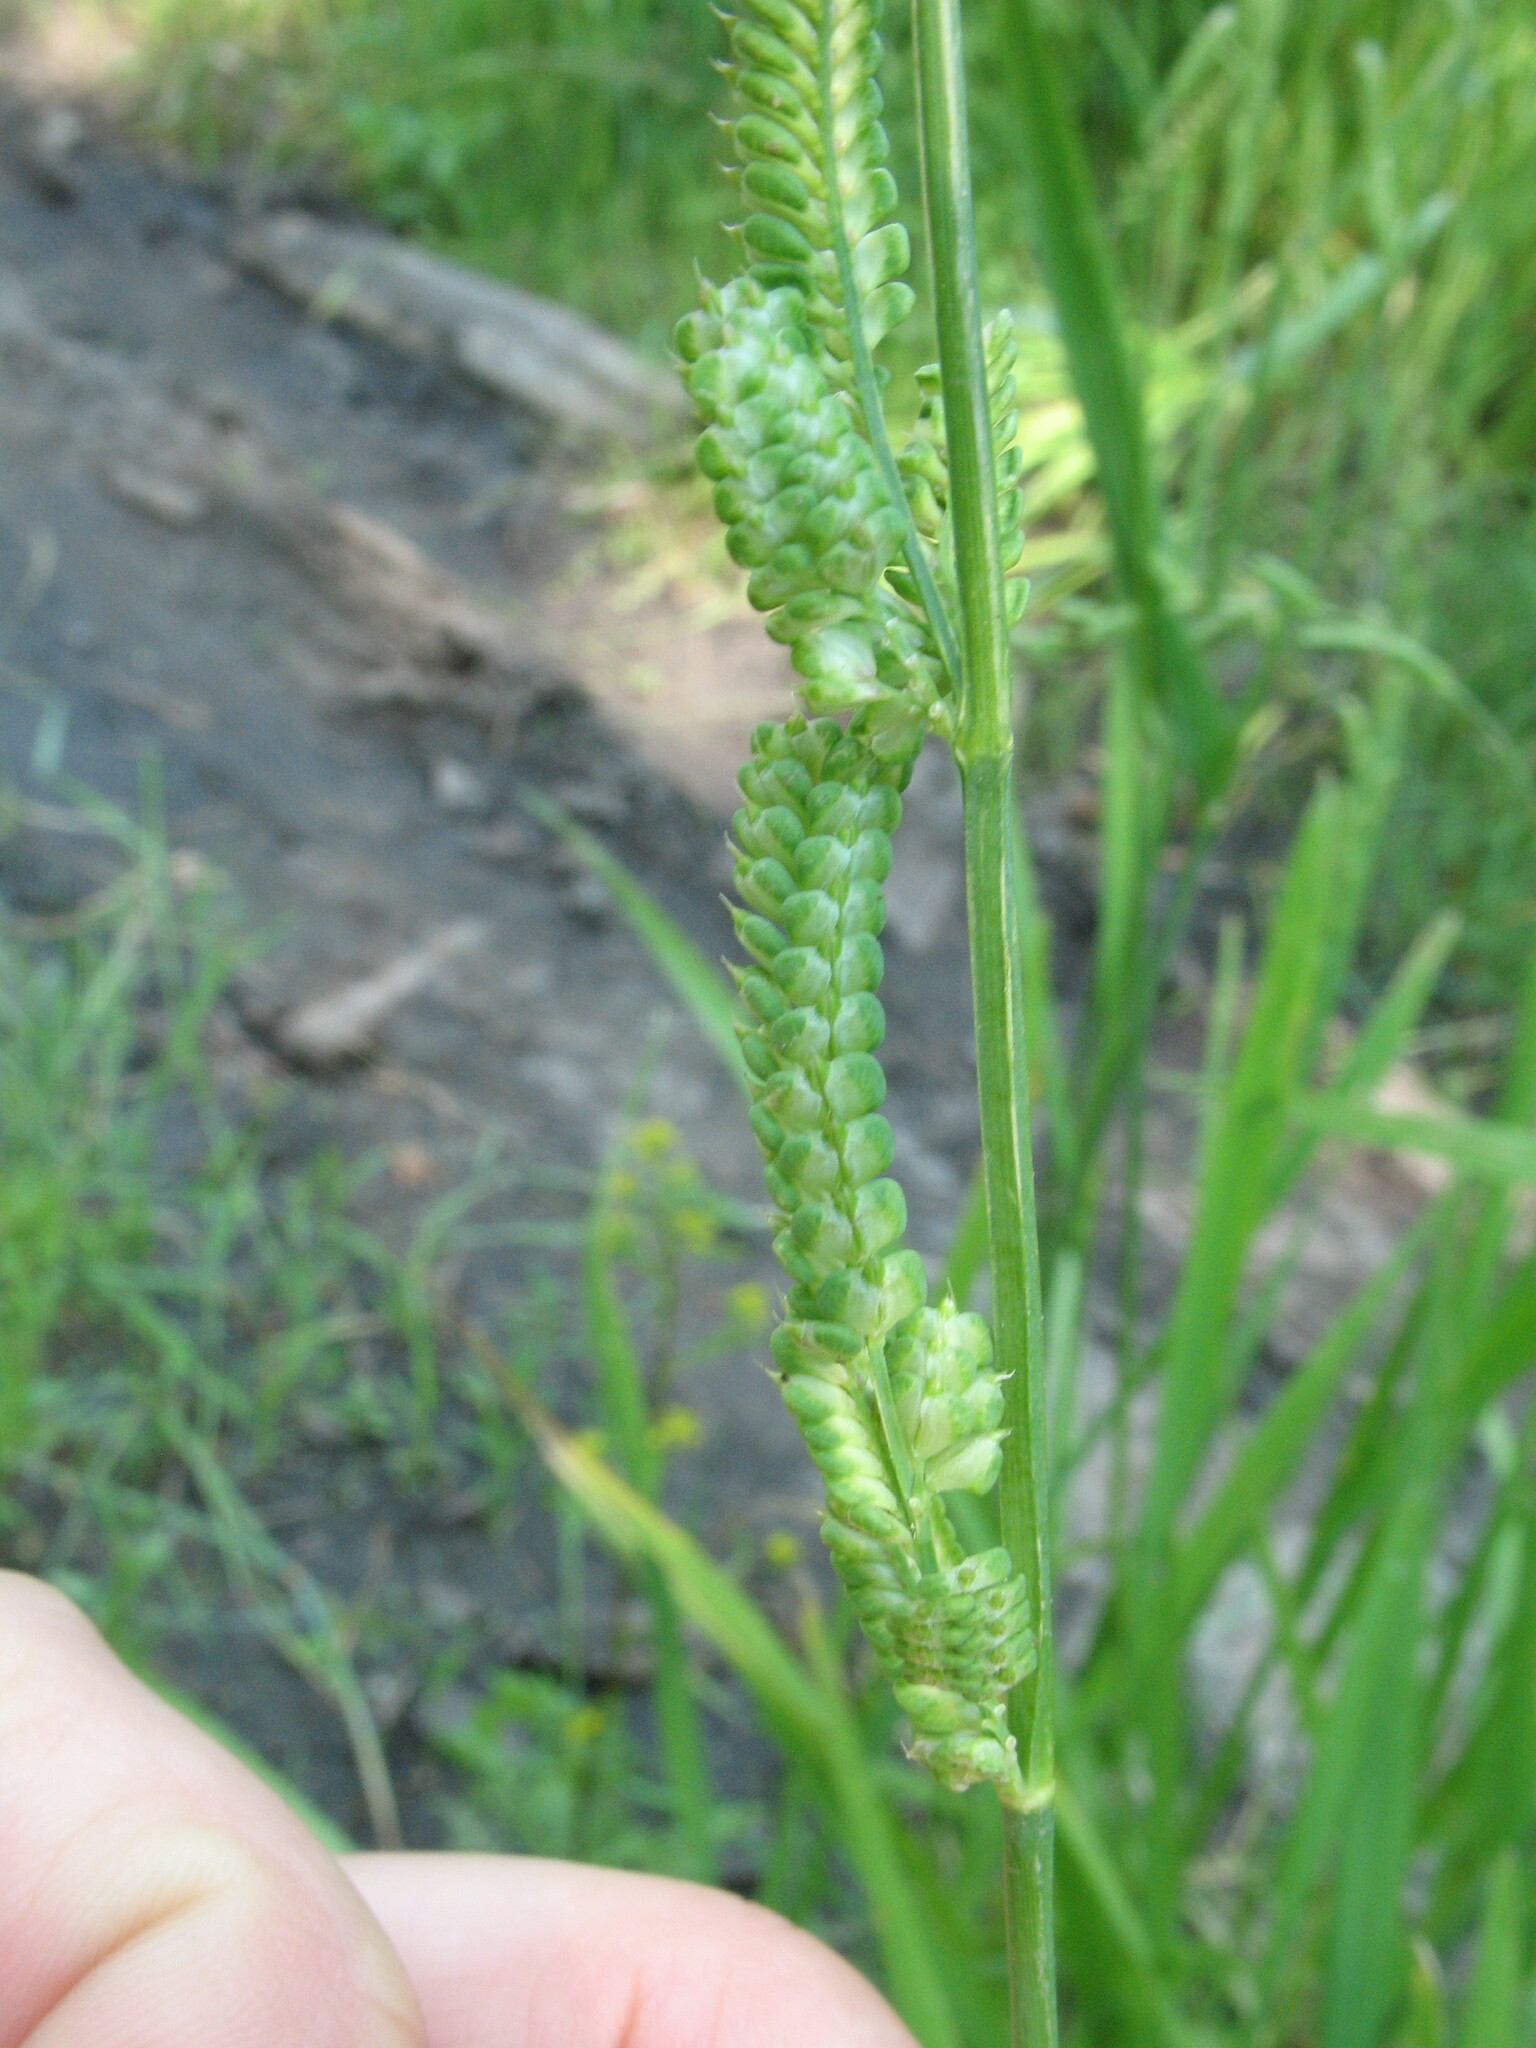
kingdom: Plantae
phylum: Tracheophyta
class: Liliopsida
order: Poales
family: Poaceae
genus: Beckmannia
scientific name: Beckmannia eruciformis
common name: European slough-grass
